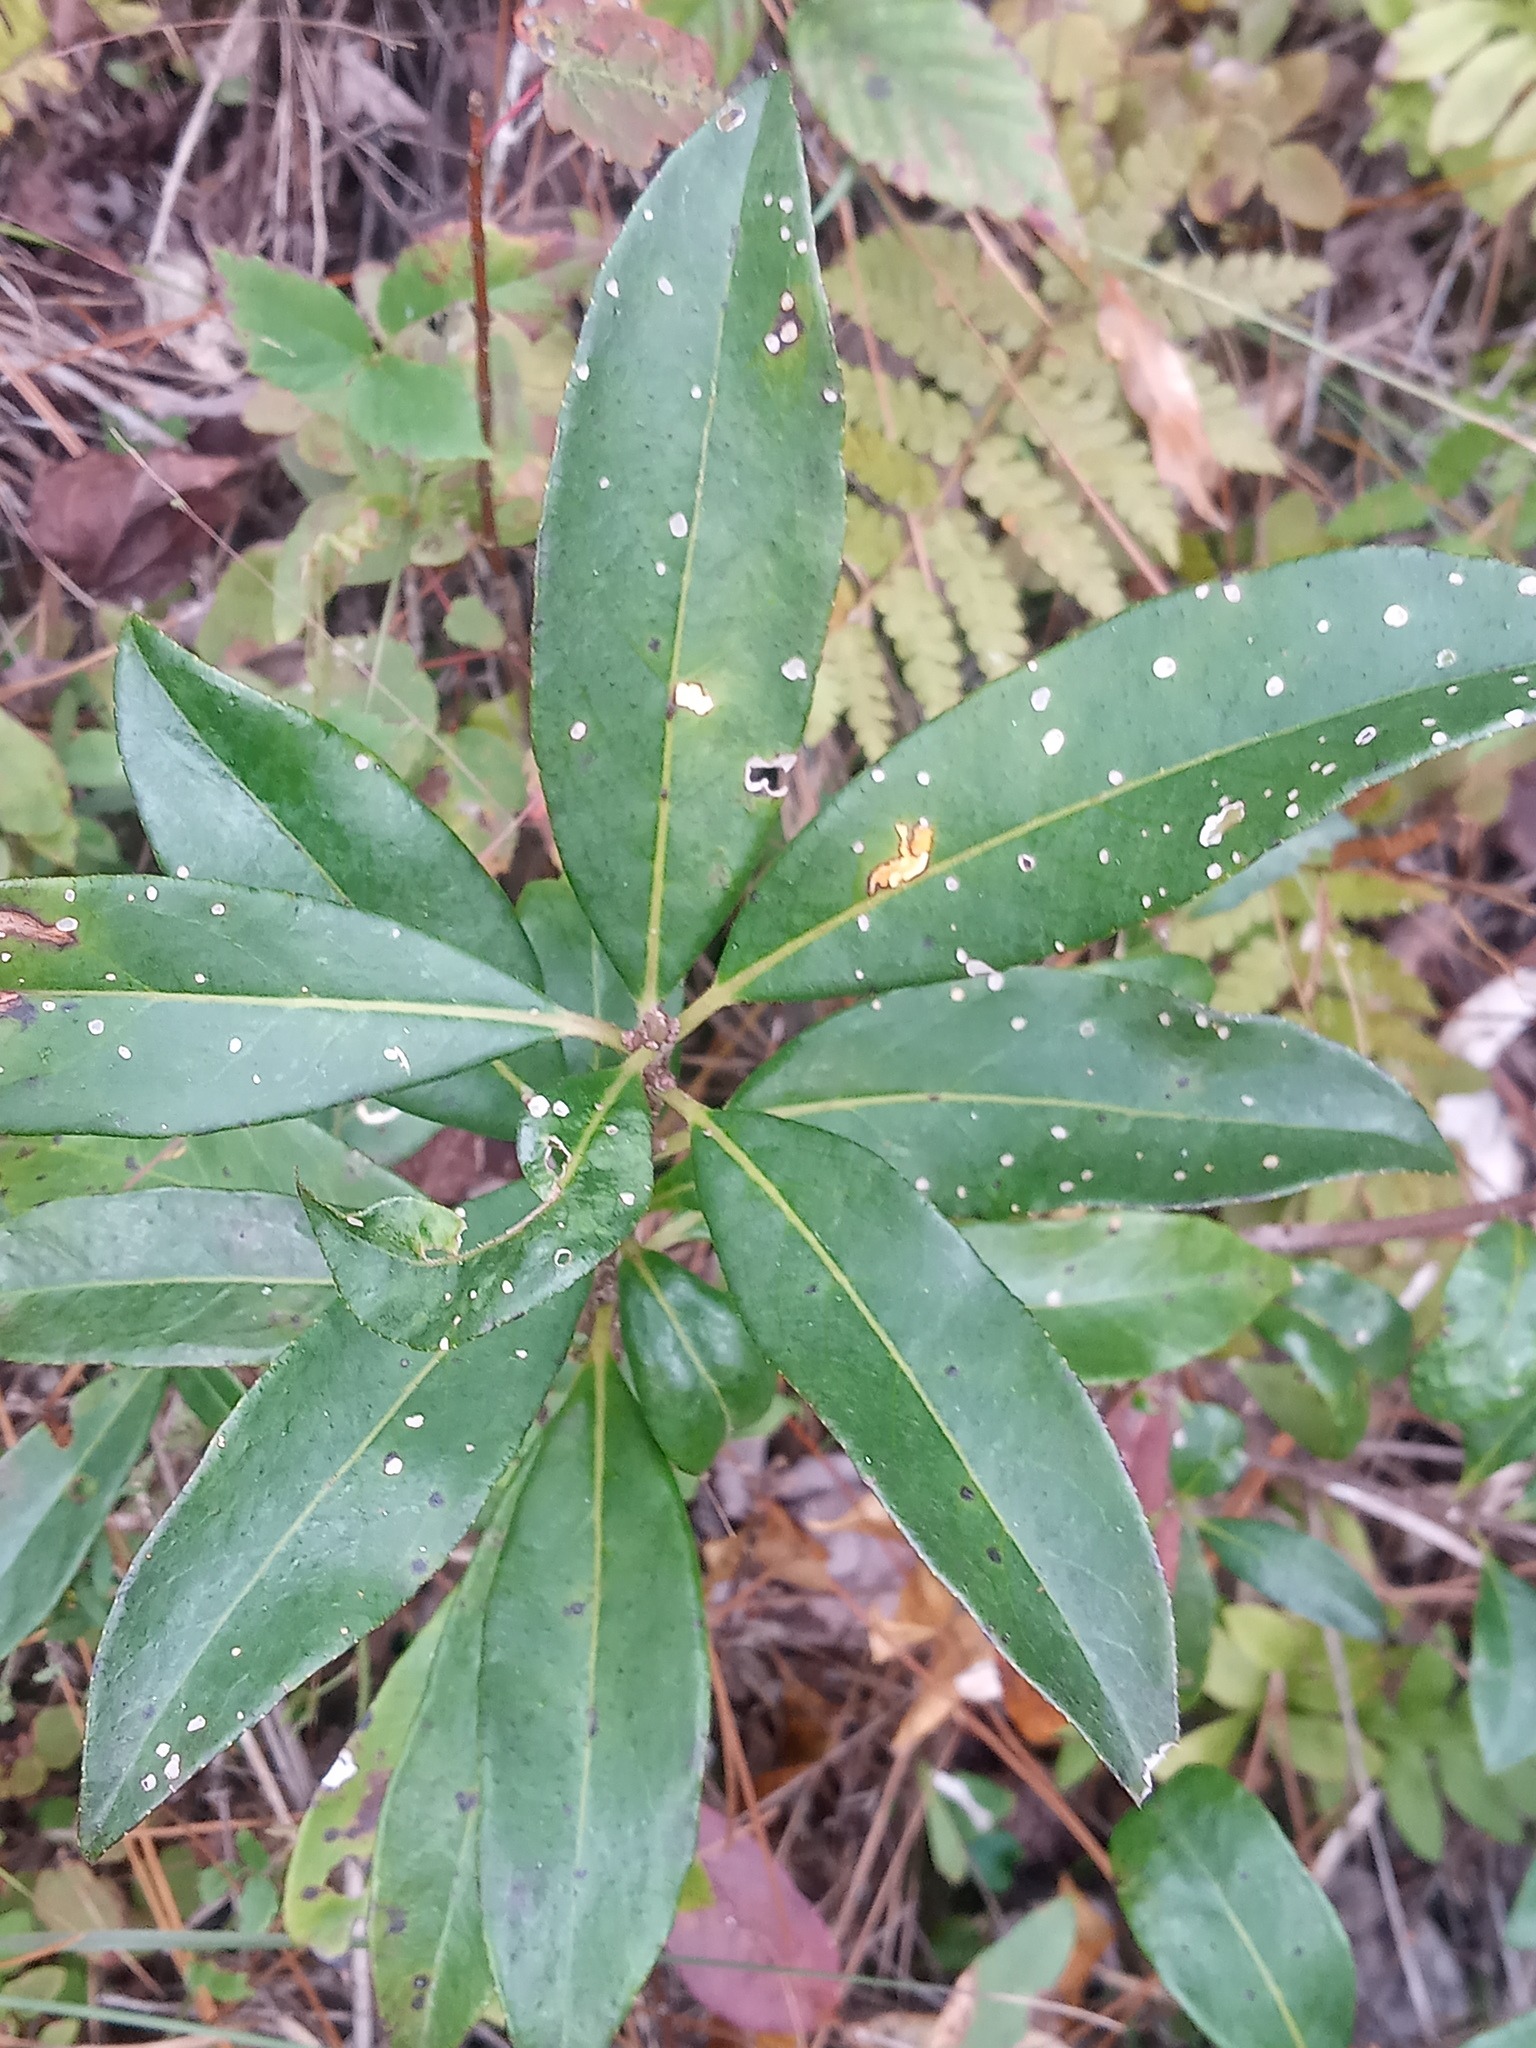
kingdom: Plantae
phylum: Tracheophyta
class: Magnoliopsida
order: Ericales
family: Symplocaceae
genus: Symplocos
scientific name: Symplocos tinctoria
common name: Horse-sugar
